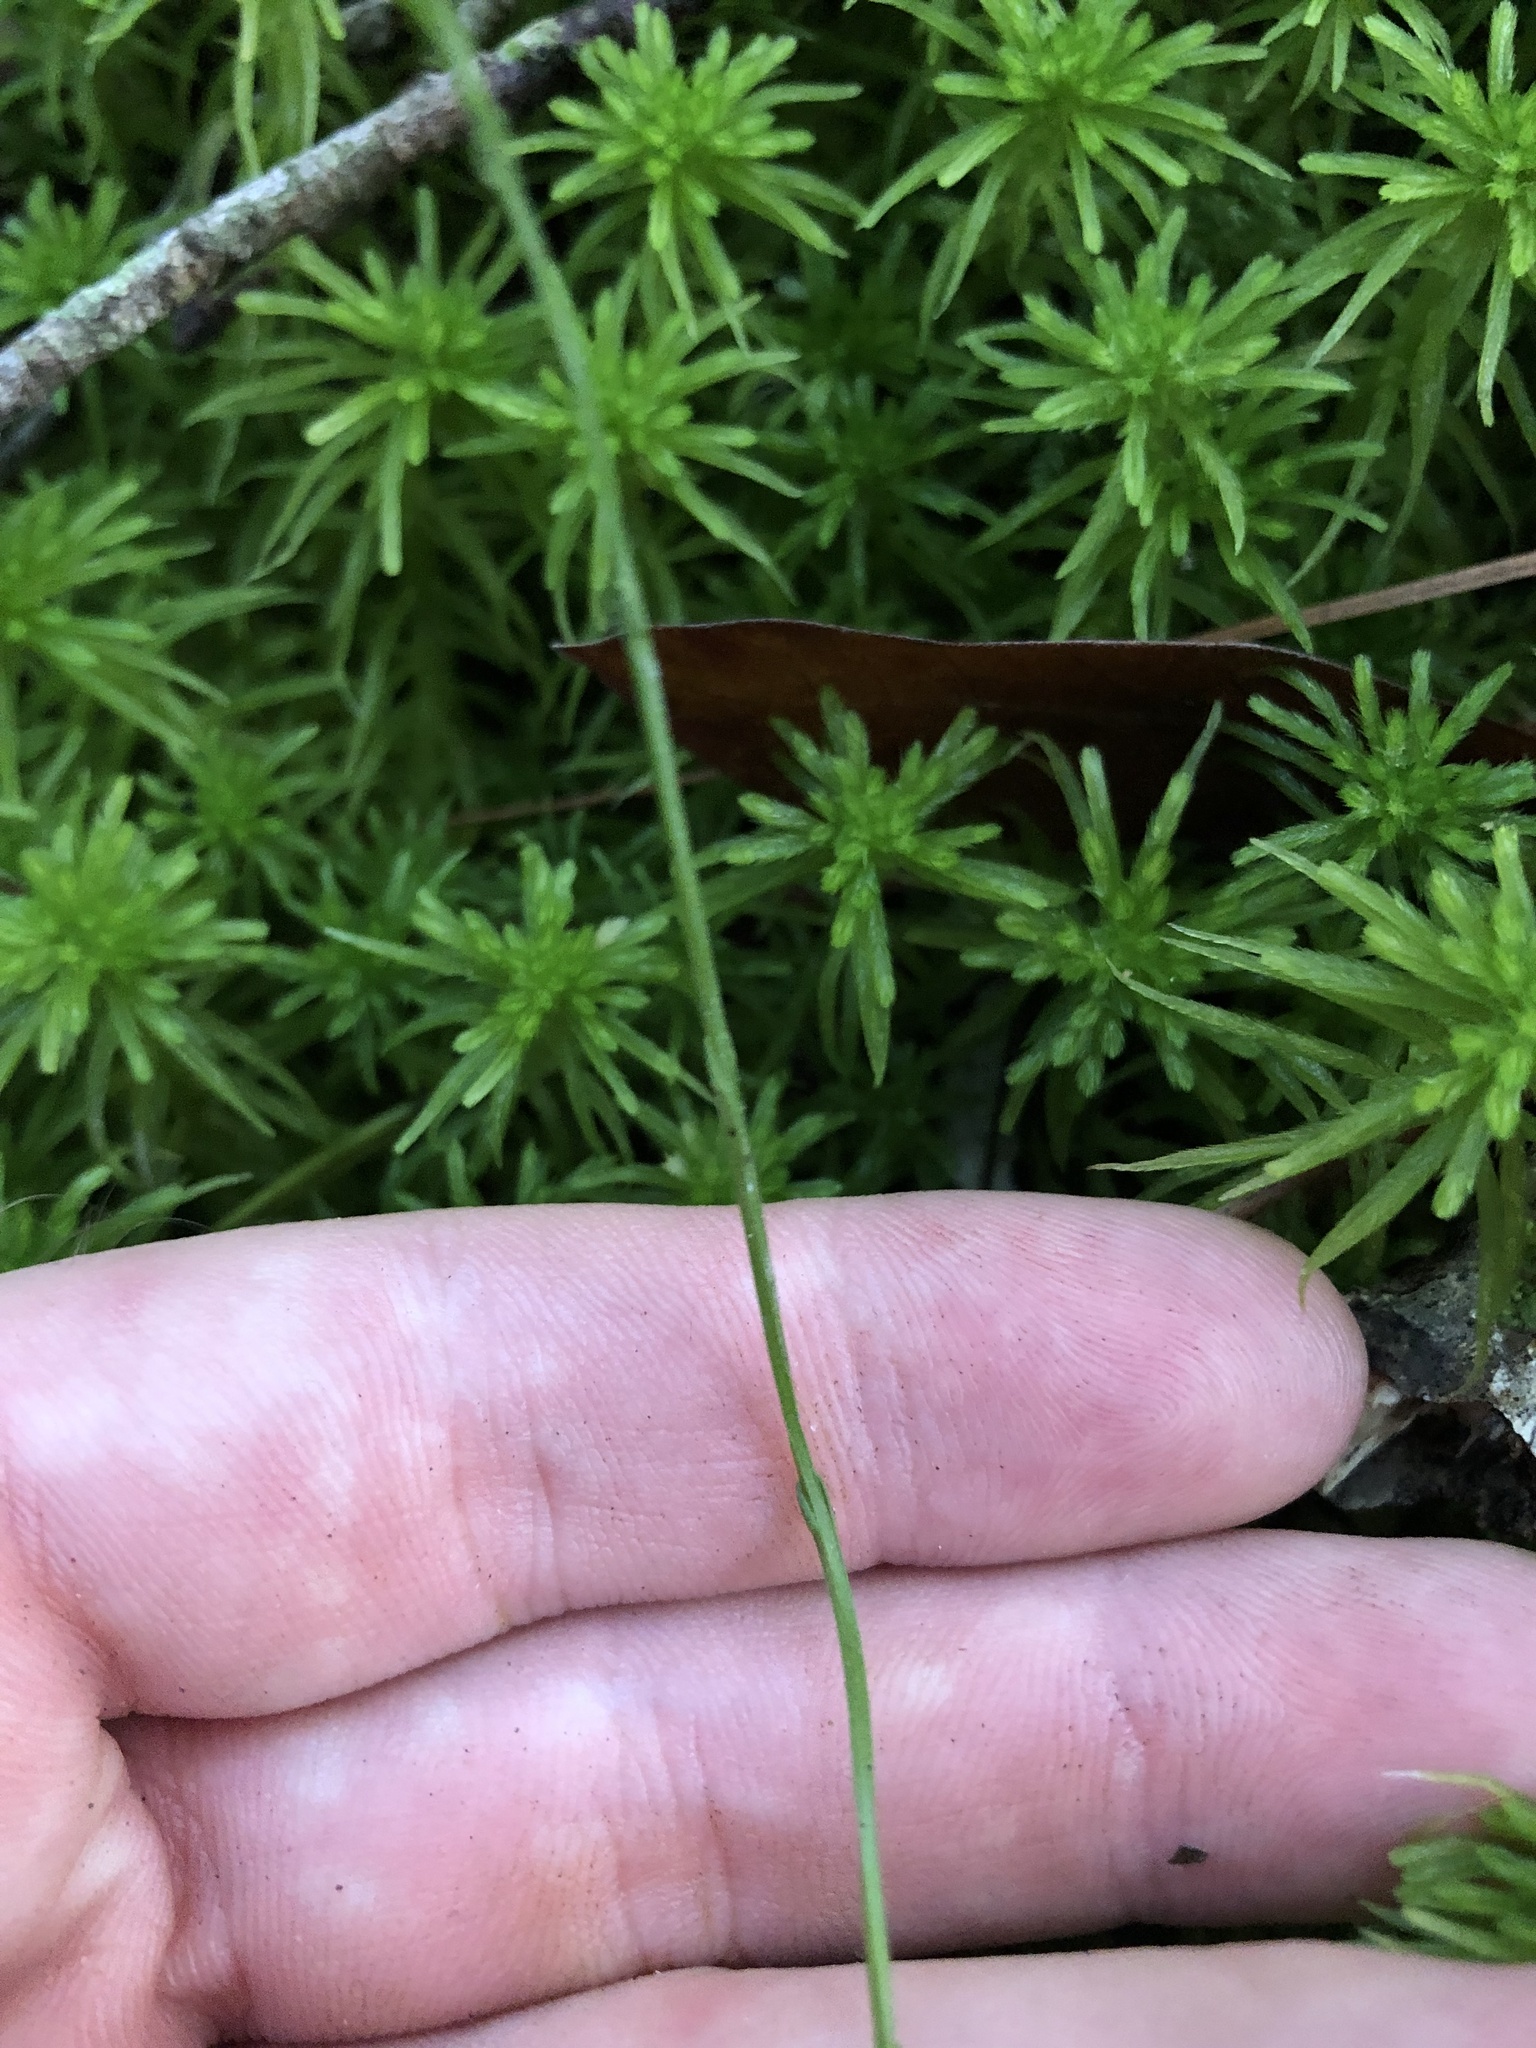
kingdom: Plantae
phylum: Tracheophyta
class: Magnoliopsida
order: Gentianales
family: Gentianaceae
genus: Bartonia
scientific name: Bartonia virginica
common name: Yellow bartonia
